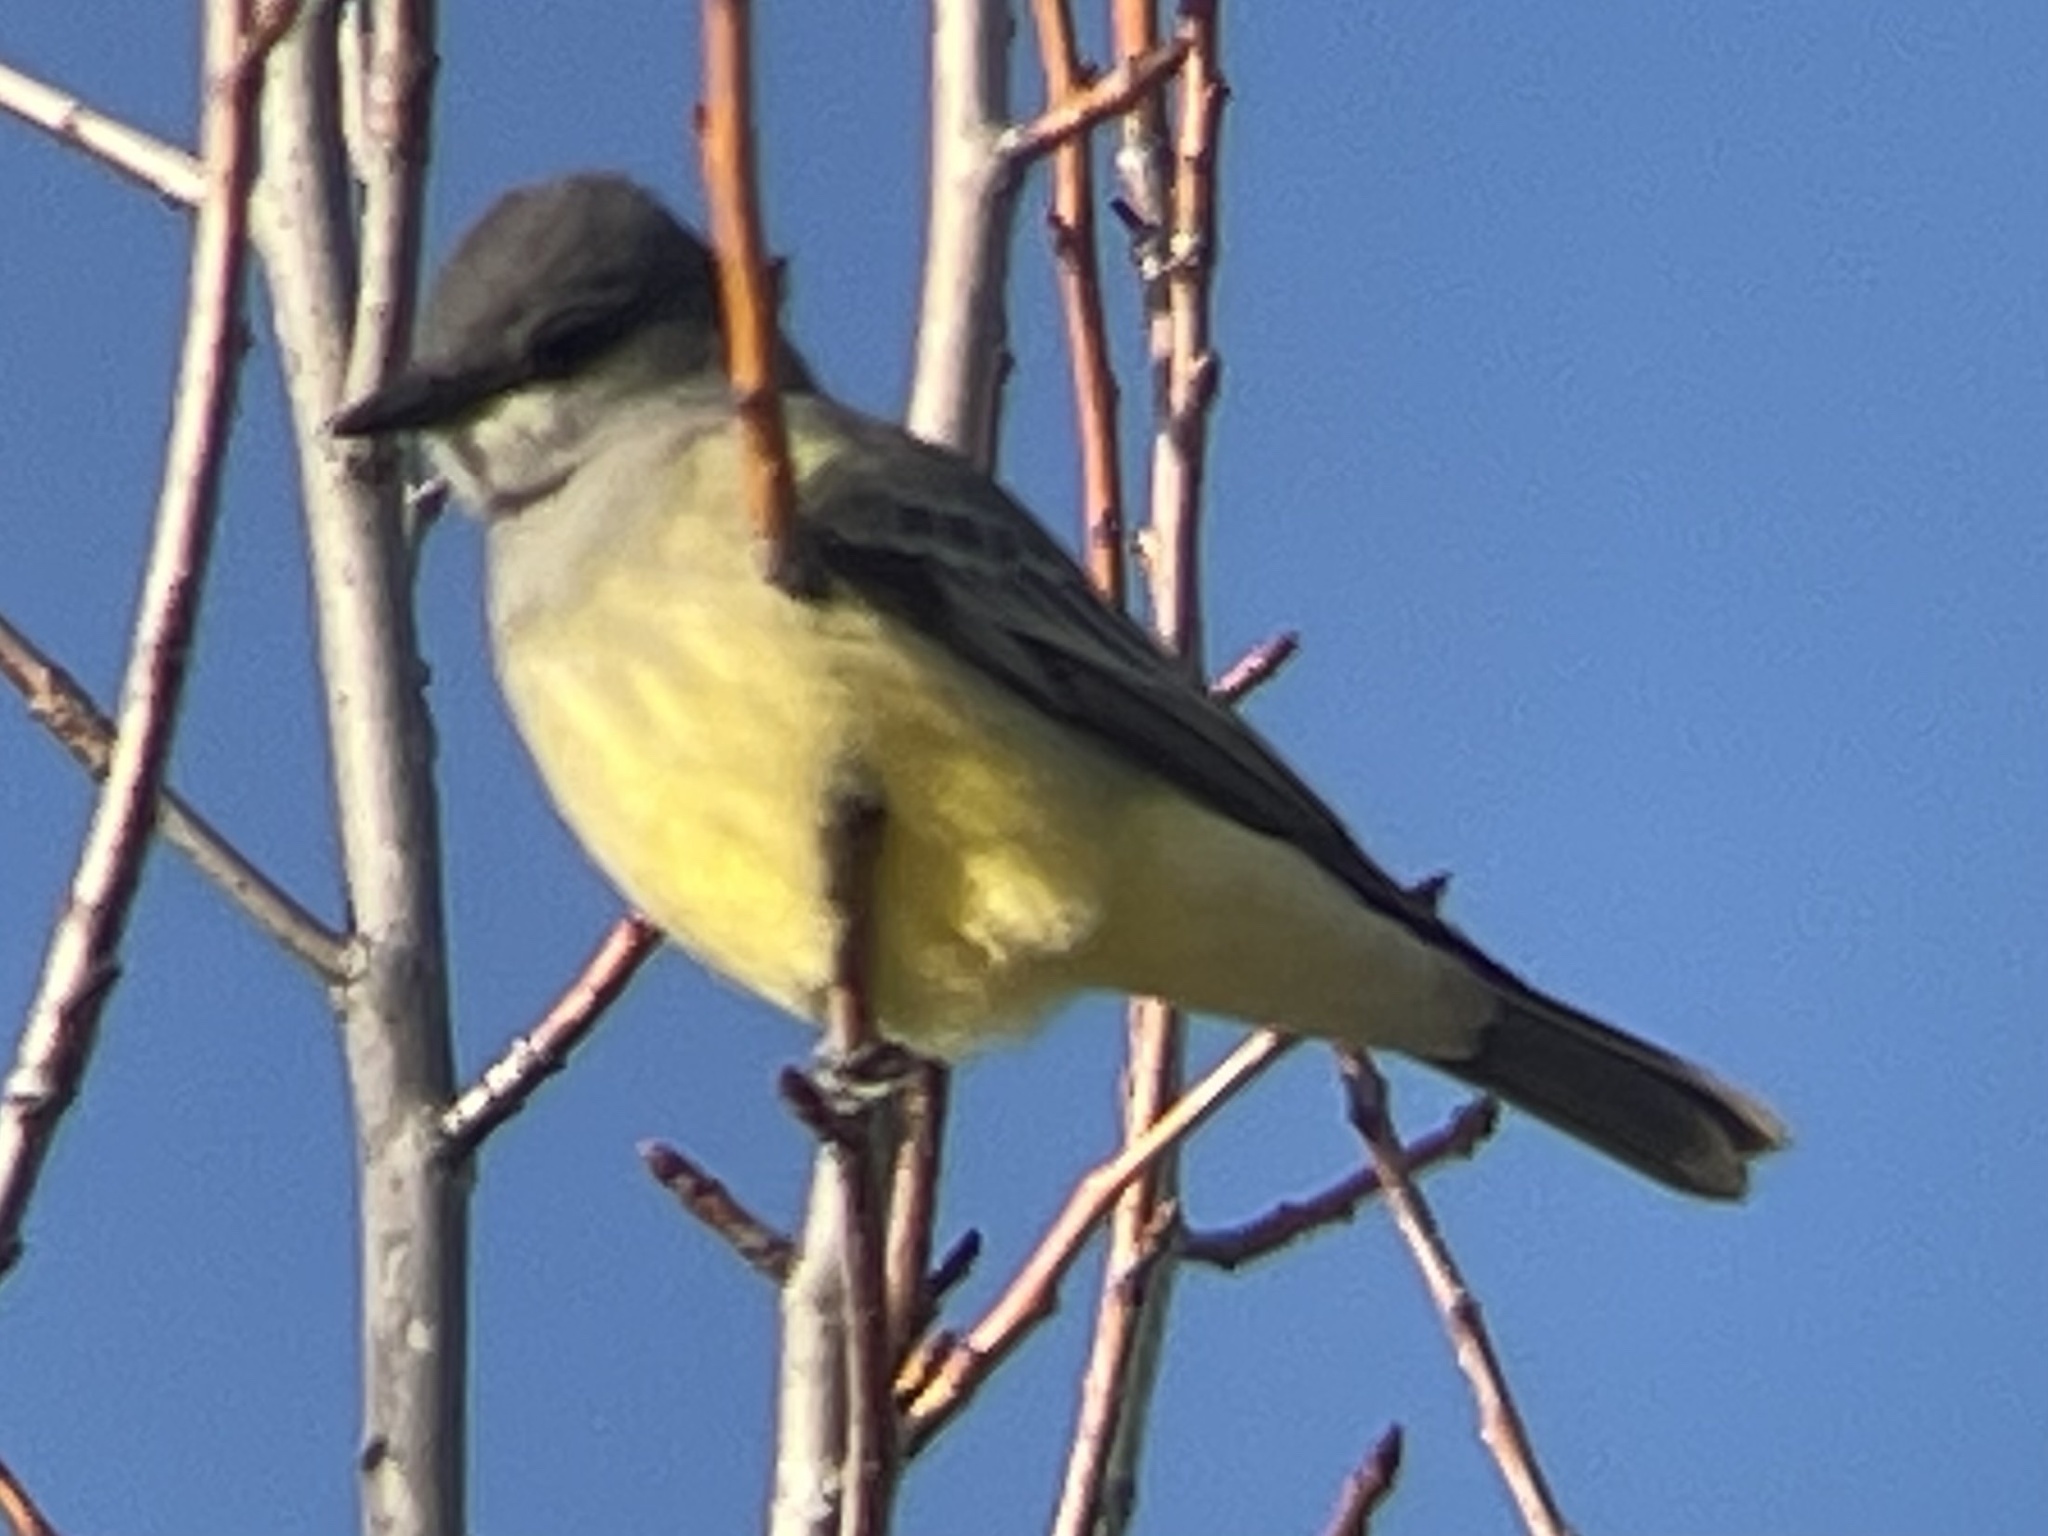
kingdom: Animalia
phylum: Chordata
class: Aves
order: Passeriformes
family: Tyrannidae
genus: Tyrannus
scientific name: Tyrannus vociferans
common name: Cassin's kingbird
